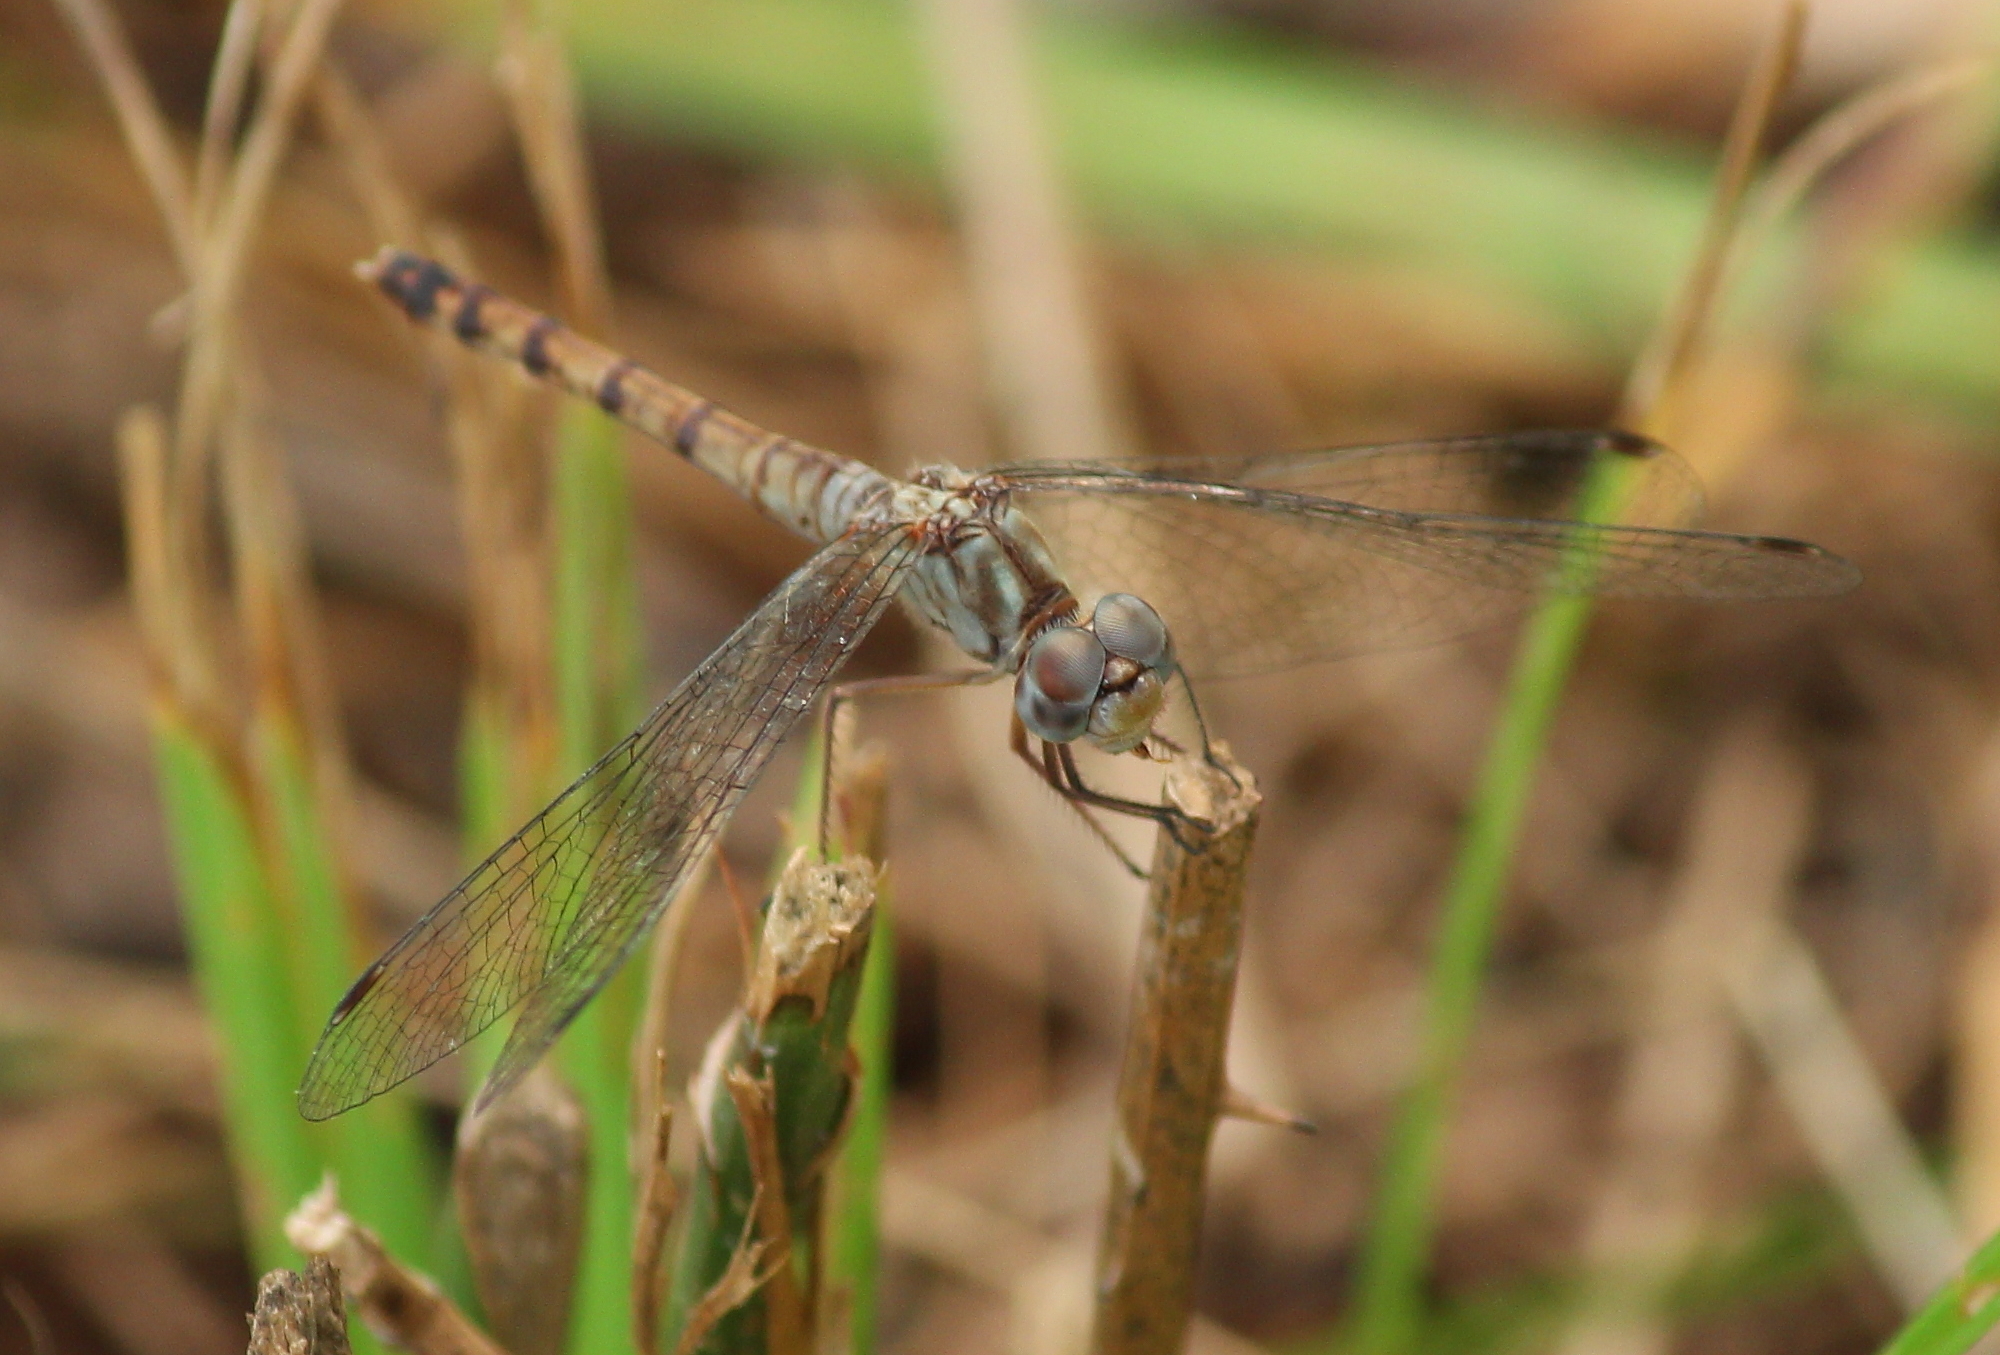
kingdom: Animalia
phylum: Arthropoda
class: Insecta
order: Odonata
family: Libellulidae
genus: Sympetrum
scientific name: Sympetrum ambiguum
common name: Blue-faced meadowhawk
